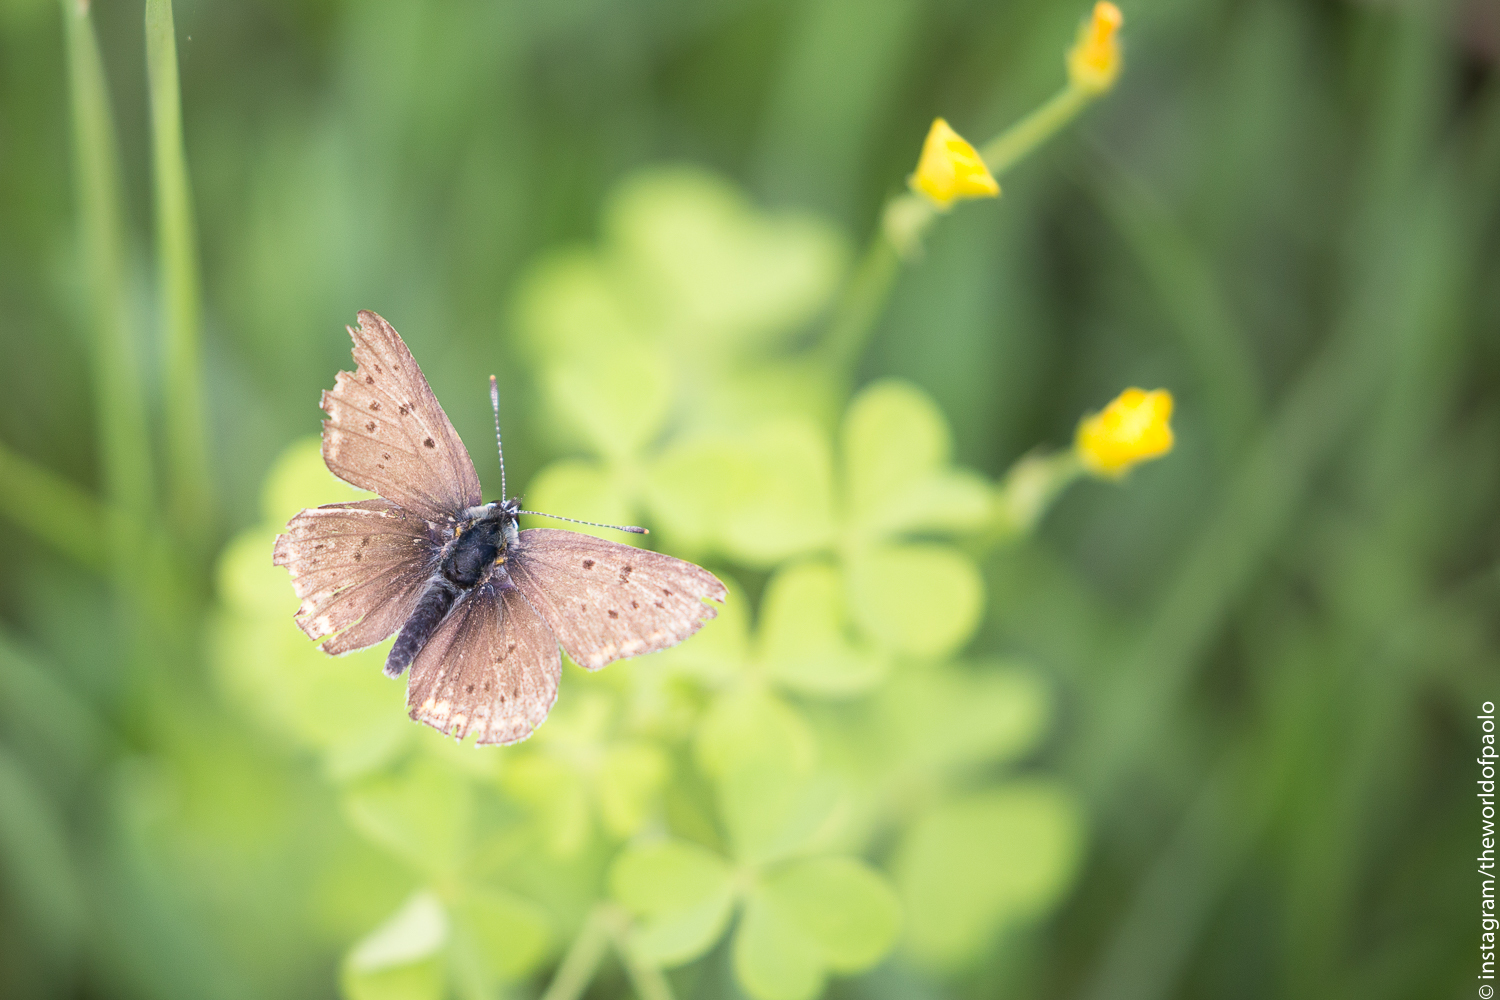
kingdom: Animalia
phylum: Arthropoda
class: Insecta
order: Lepidoptera
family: Lycaenidae
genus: Loweia
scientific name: Loweia tityrus
